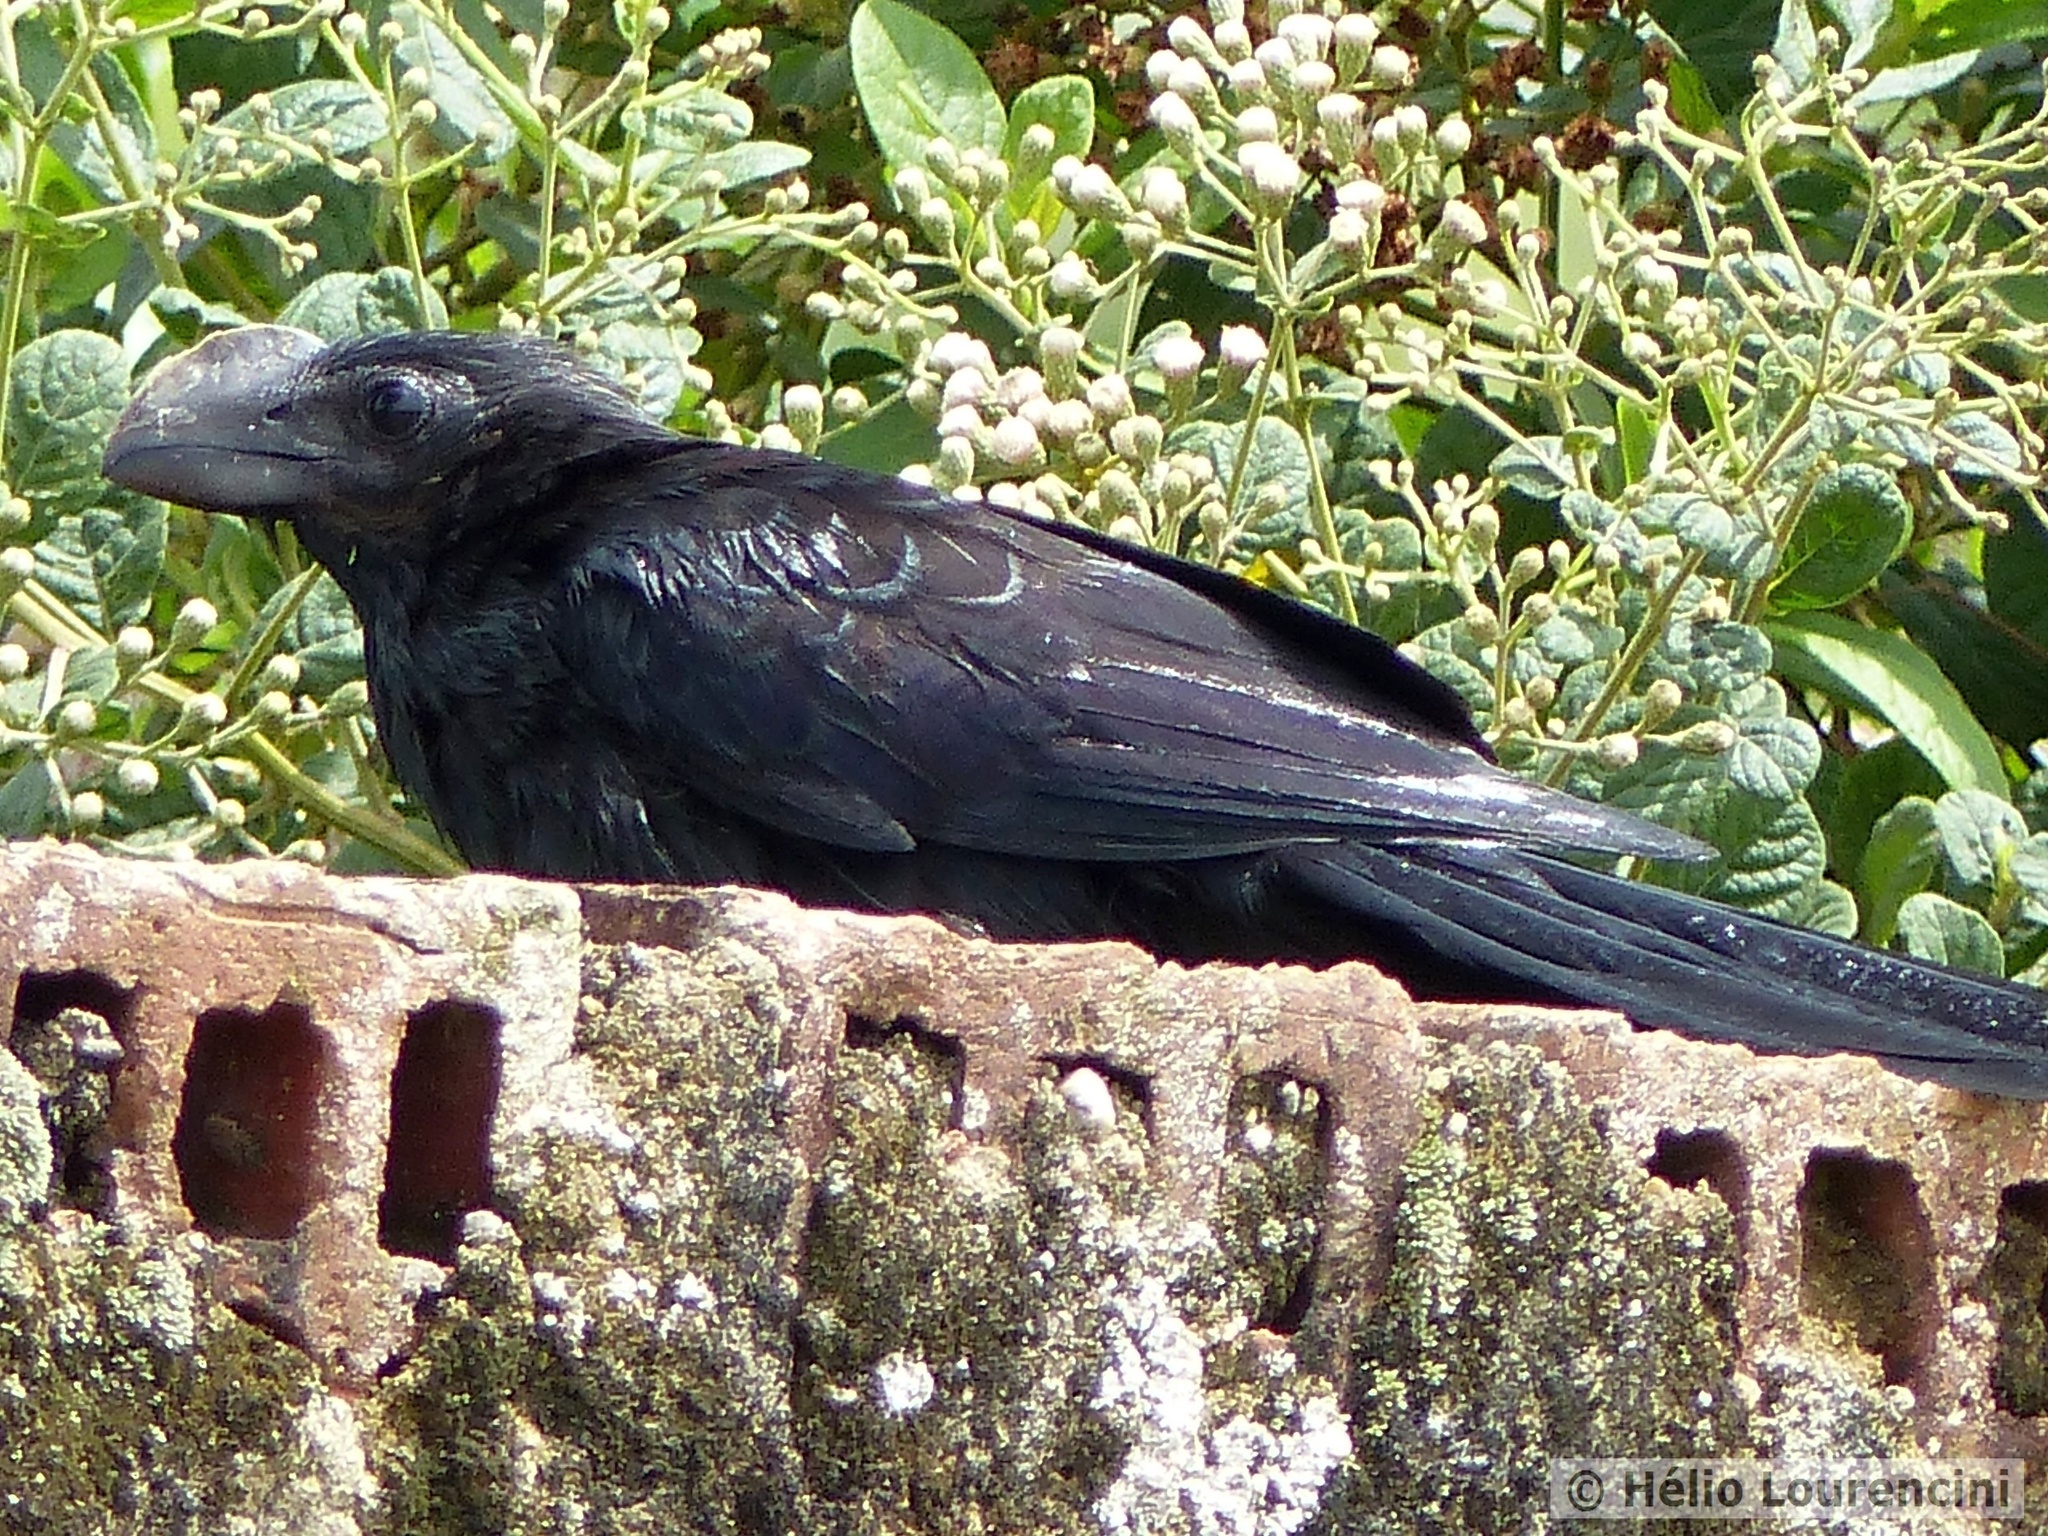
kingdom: Animalia
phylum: Chordata
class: Aves
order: Cuculiformes
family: Cuculidae
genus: Crotophaga
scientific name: Crotophaga ani
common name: Smooth-billed ani
